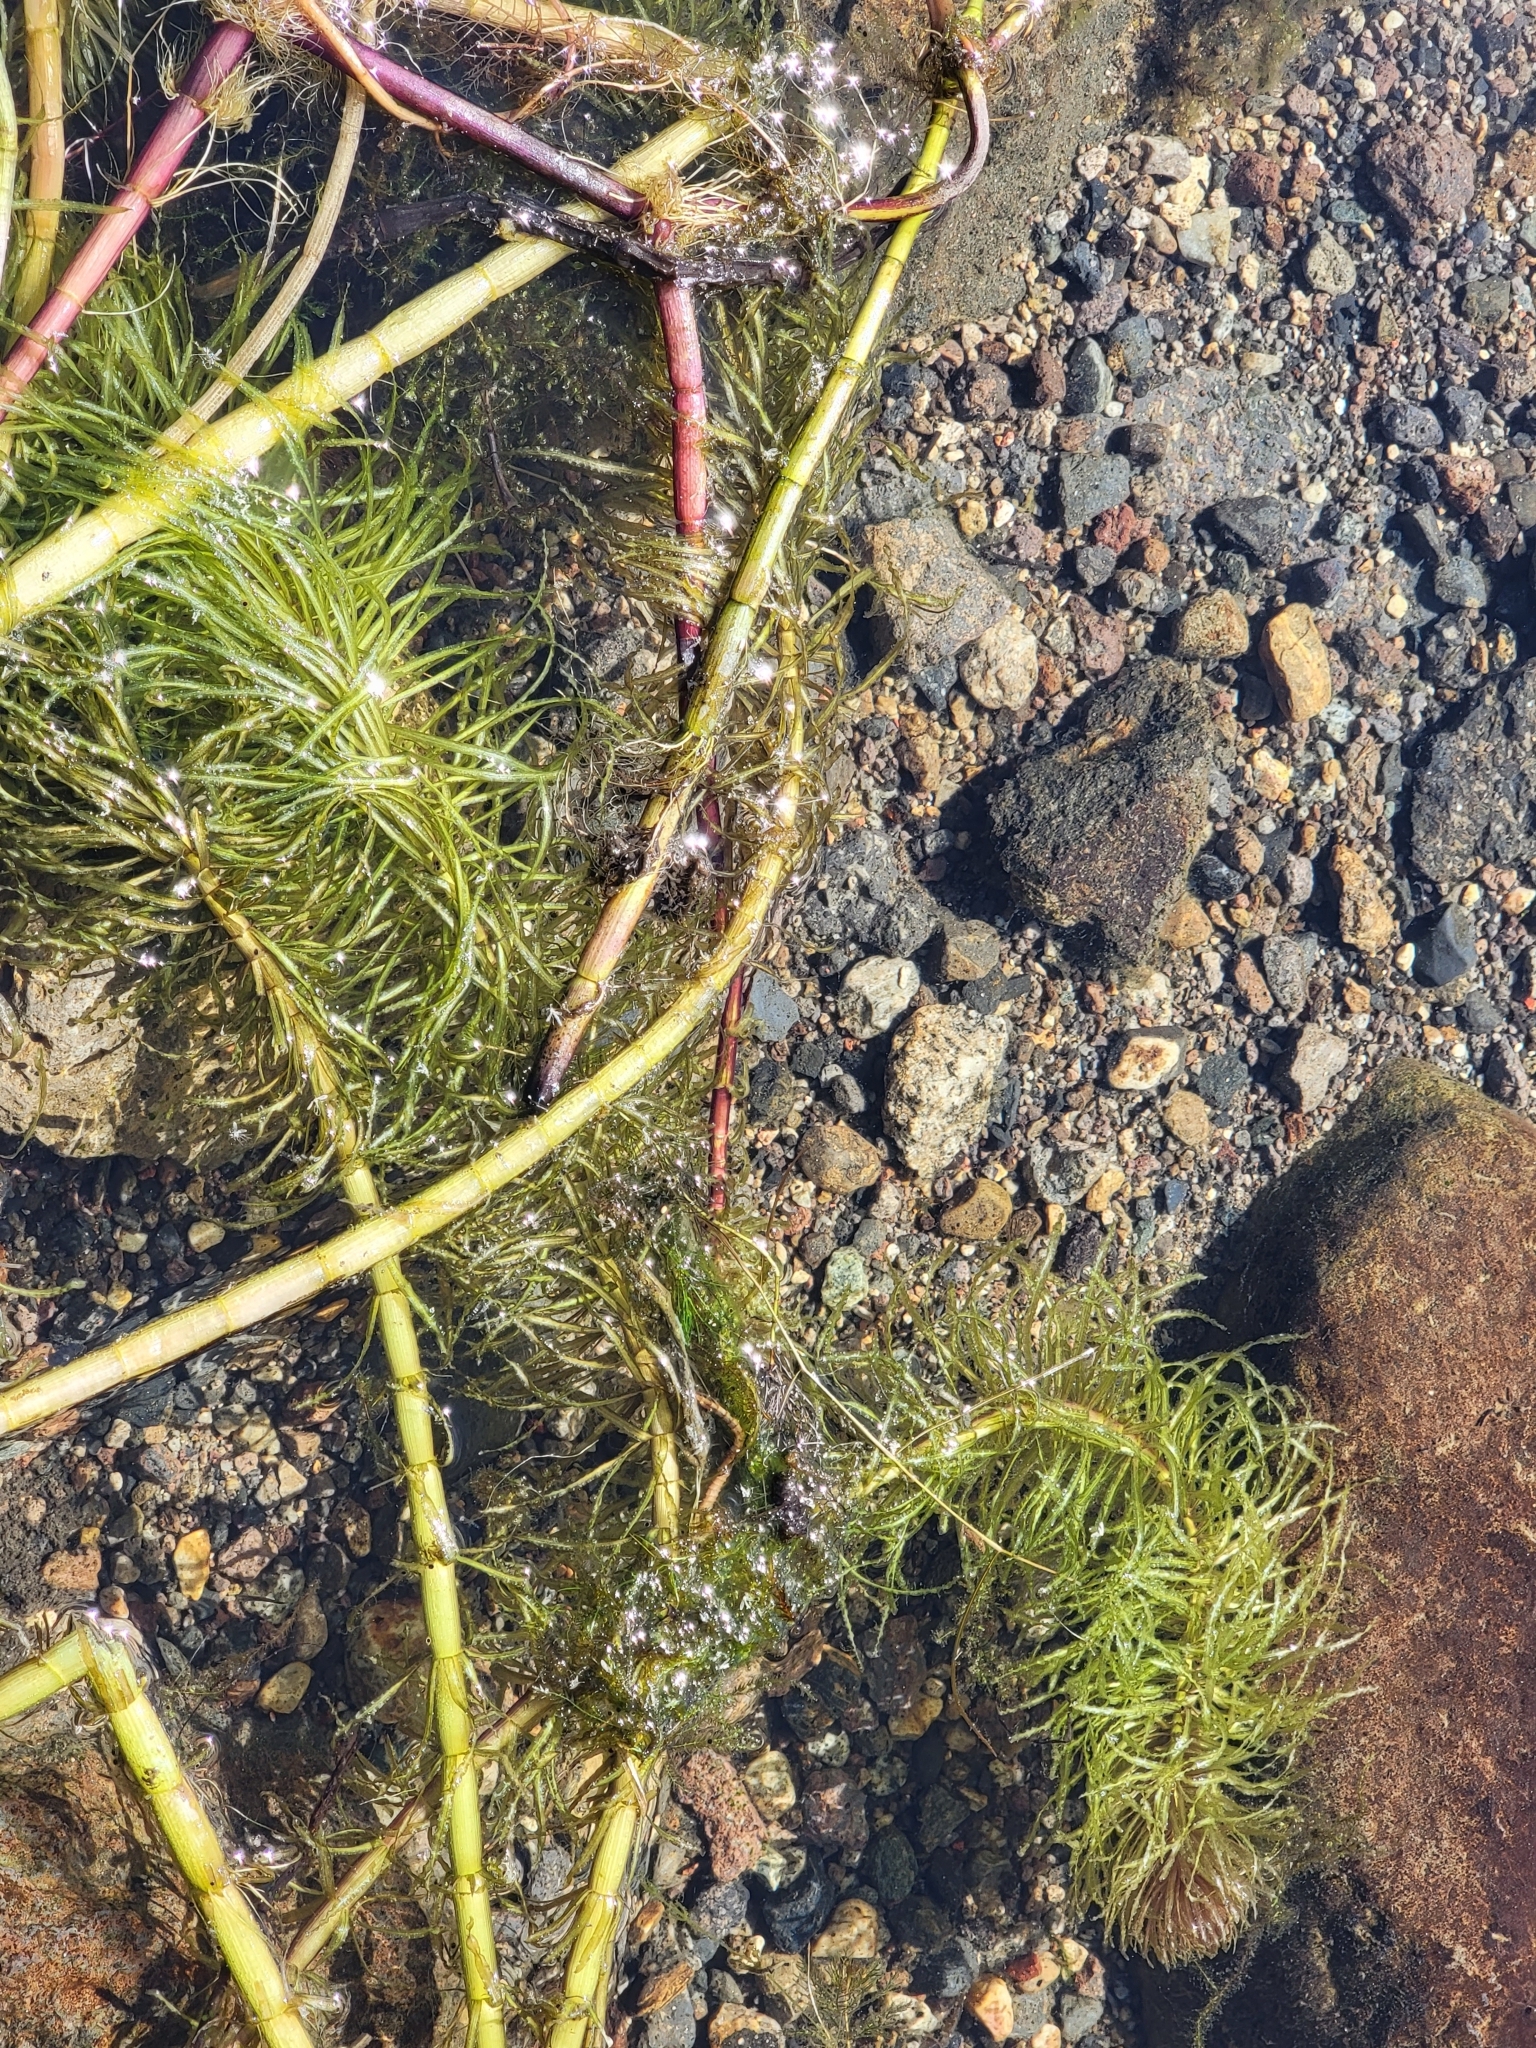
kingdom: Plantae
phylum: Tracheophyta
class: Magnoliopsida
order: Lamiales
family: Plantaginaceae
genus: Hippuris
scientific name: Hippuris vulgaris
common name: Mare's-tail
